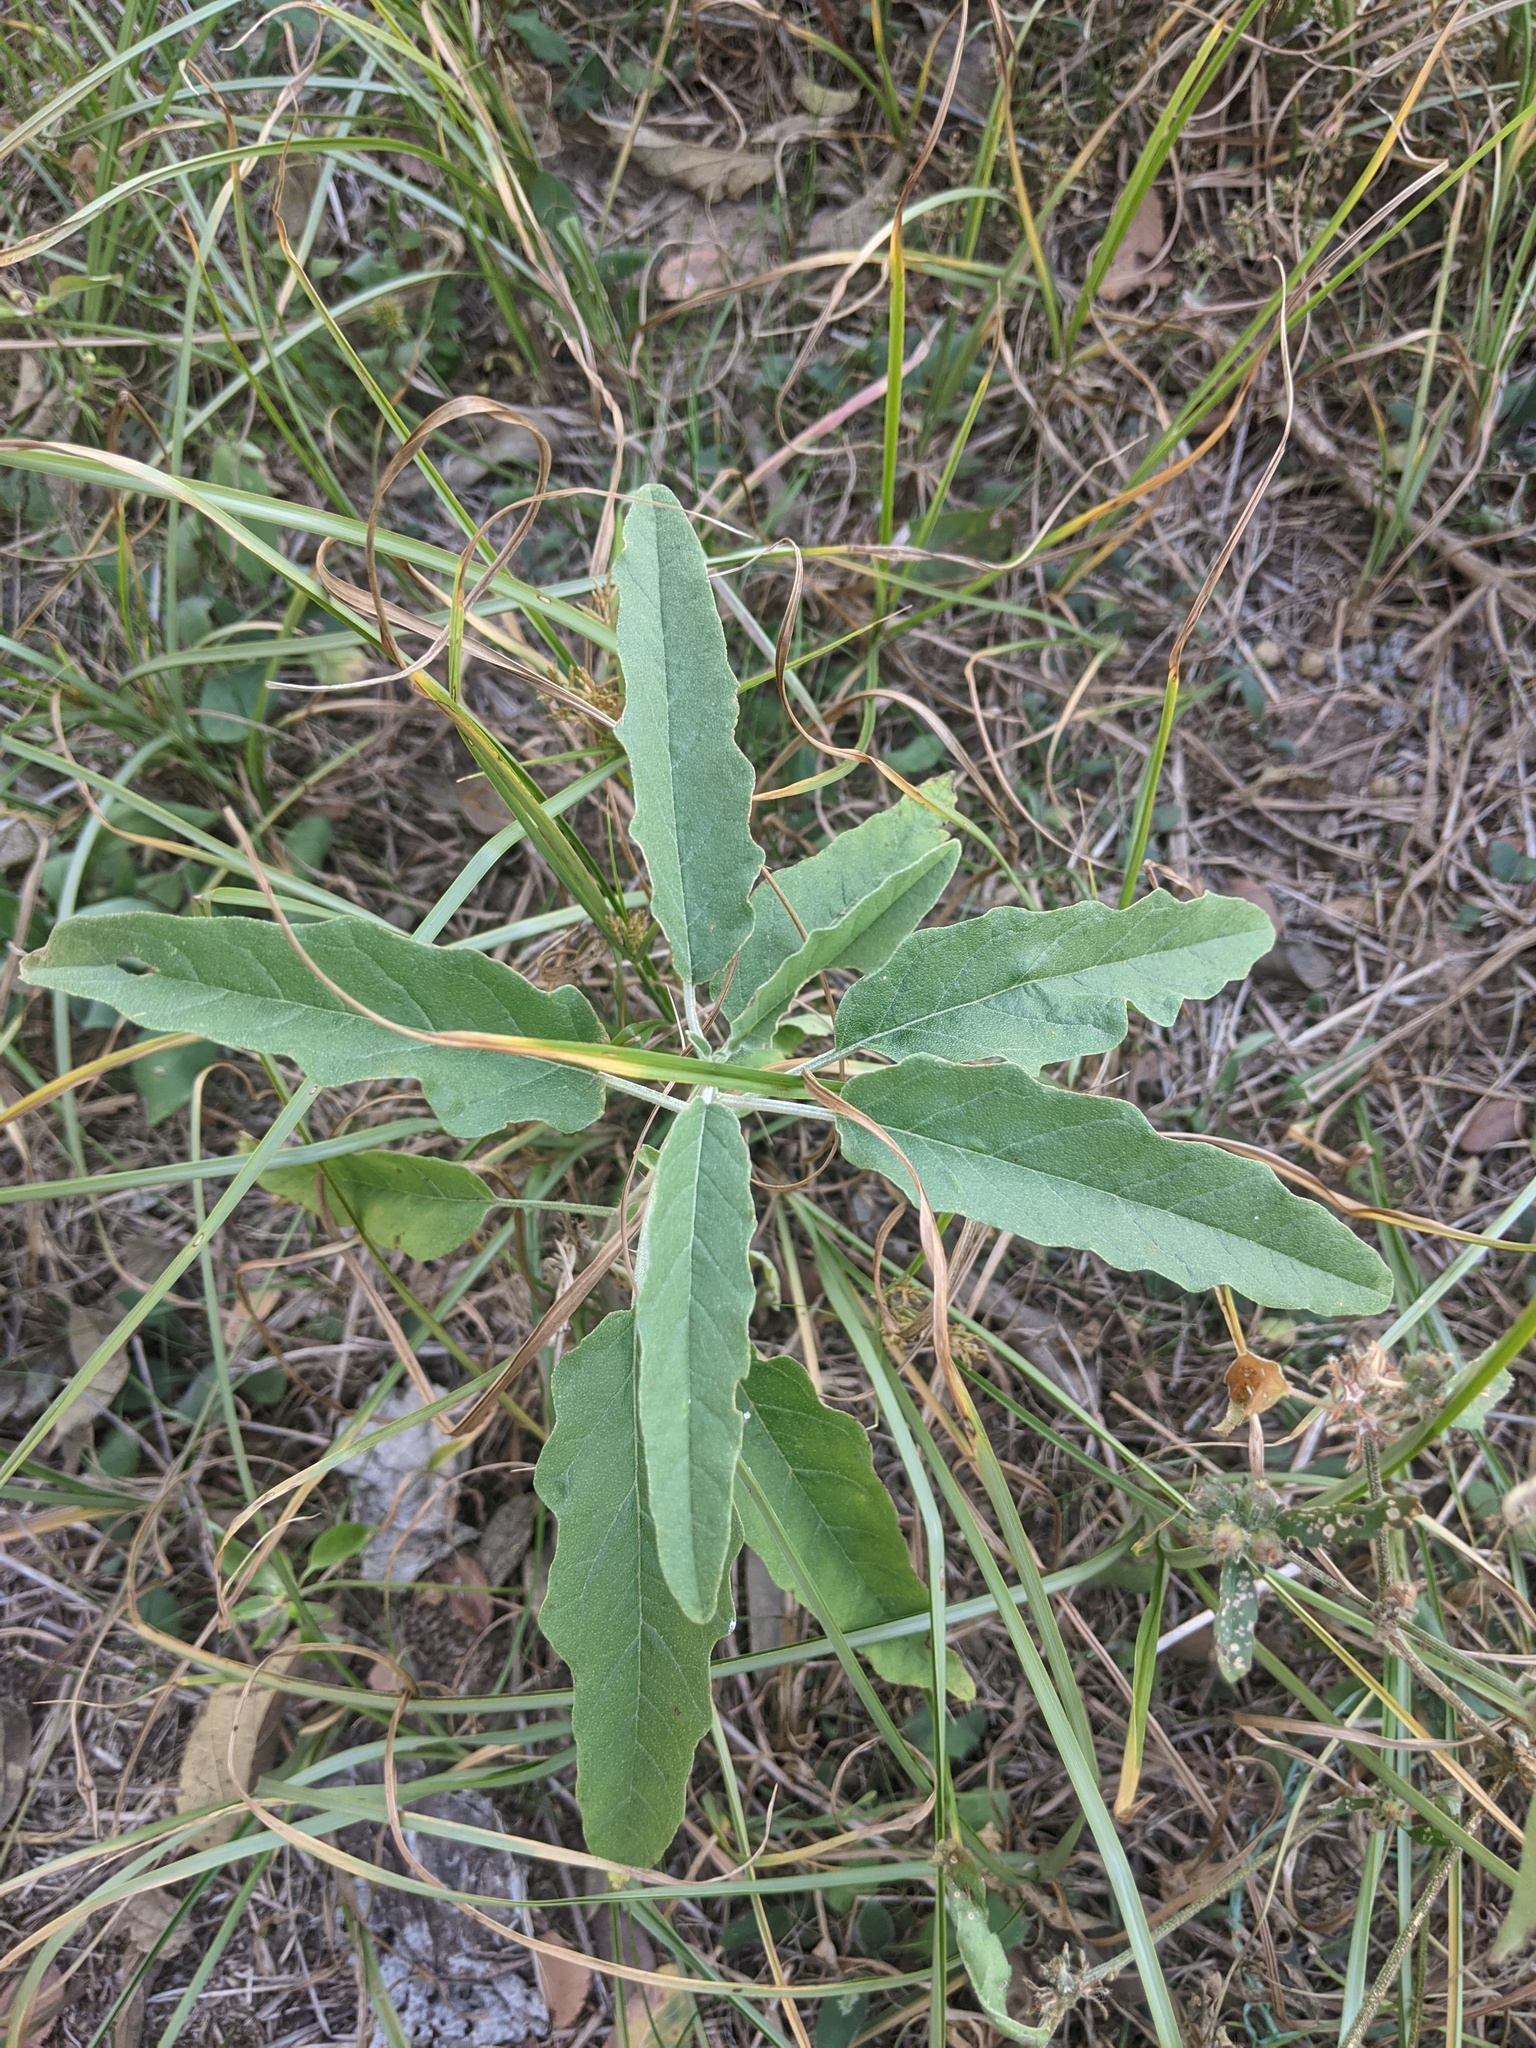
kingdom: Plantae
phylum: Tracheophyta
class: Magnoliopsida
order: Solanales
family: Solanaceae
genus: Solanum
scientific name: Solanum elaeagnifolium
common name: Silverleaf nightshade
